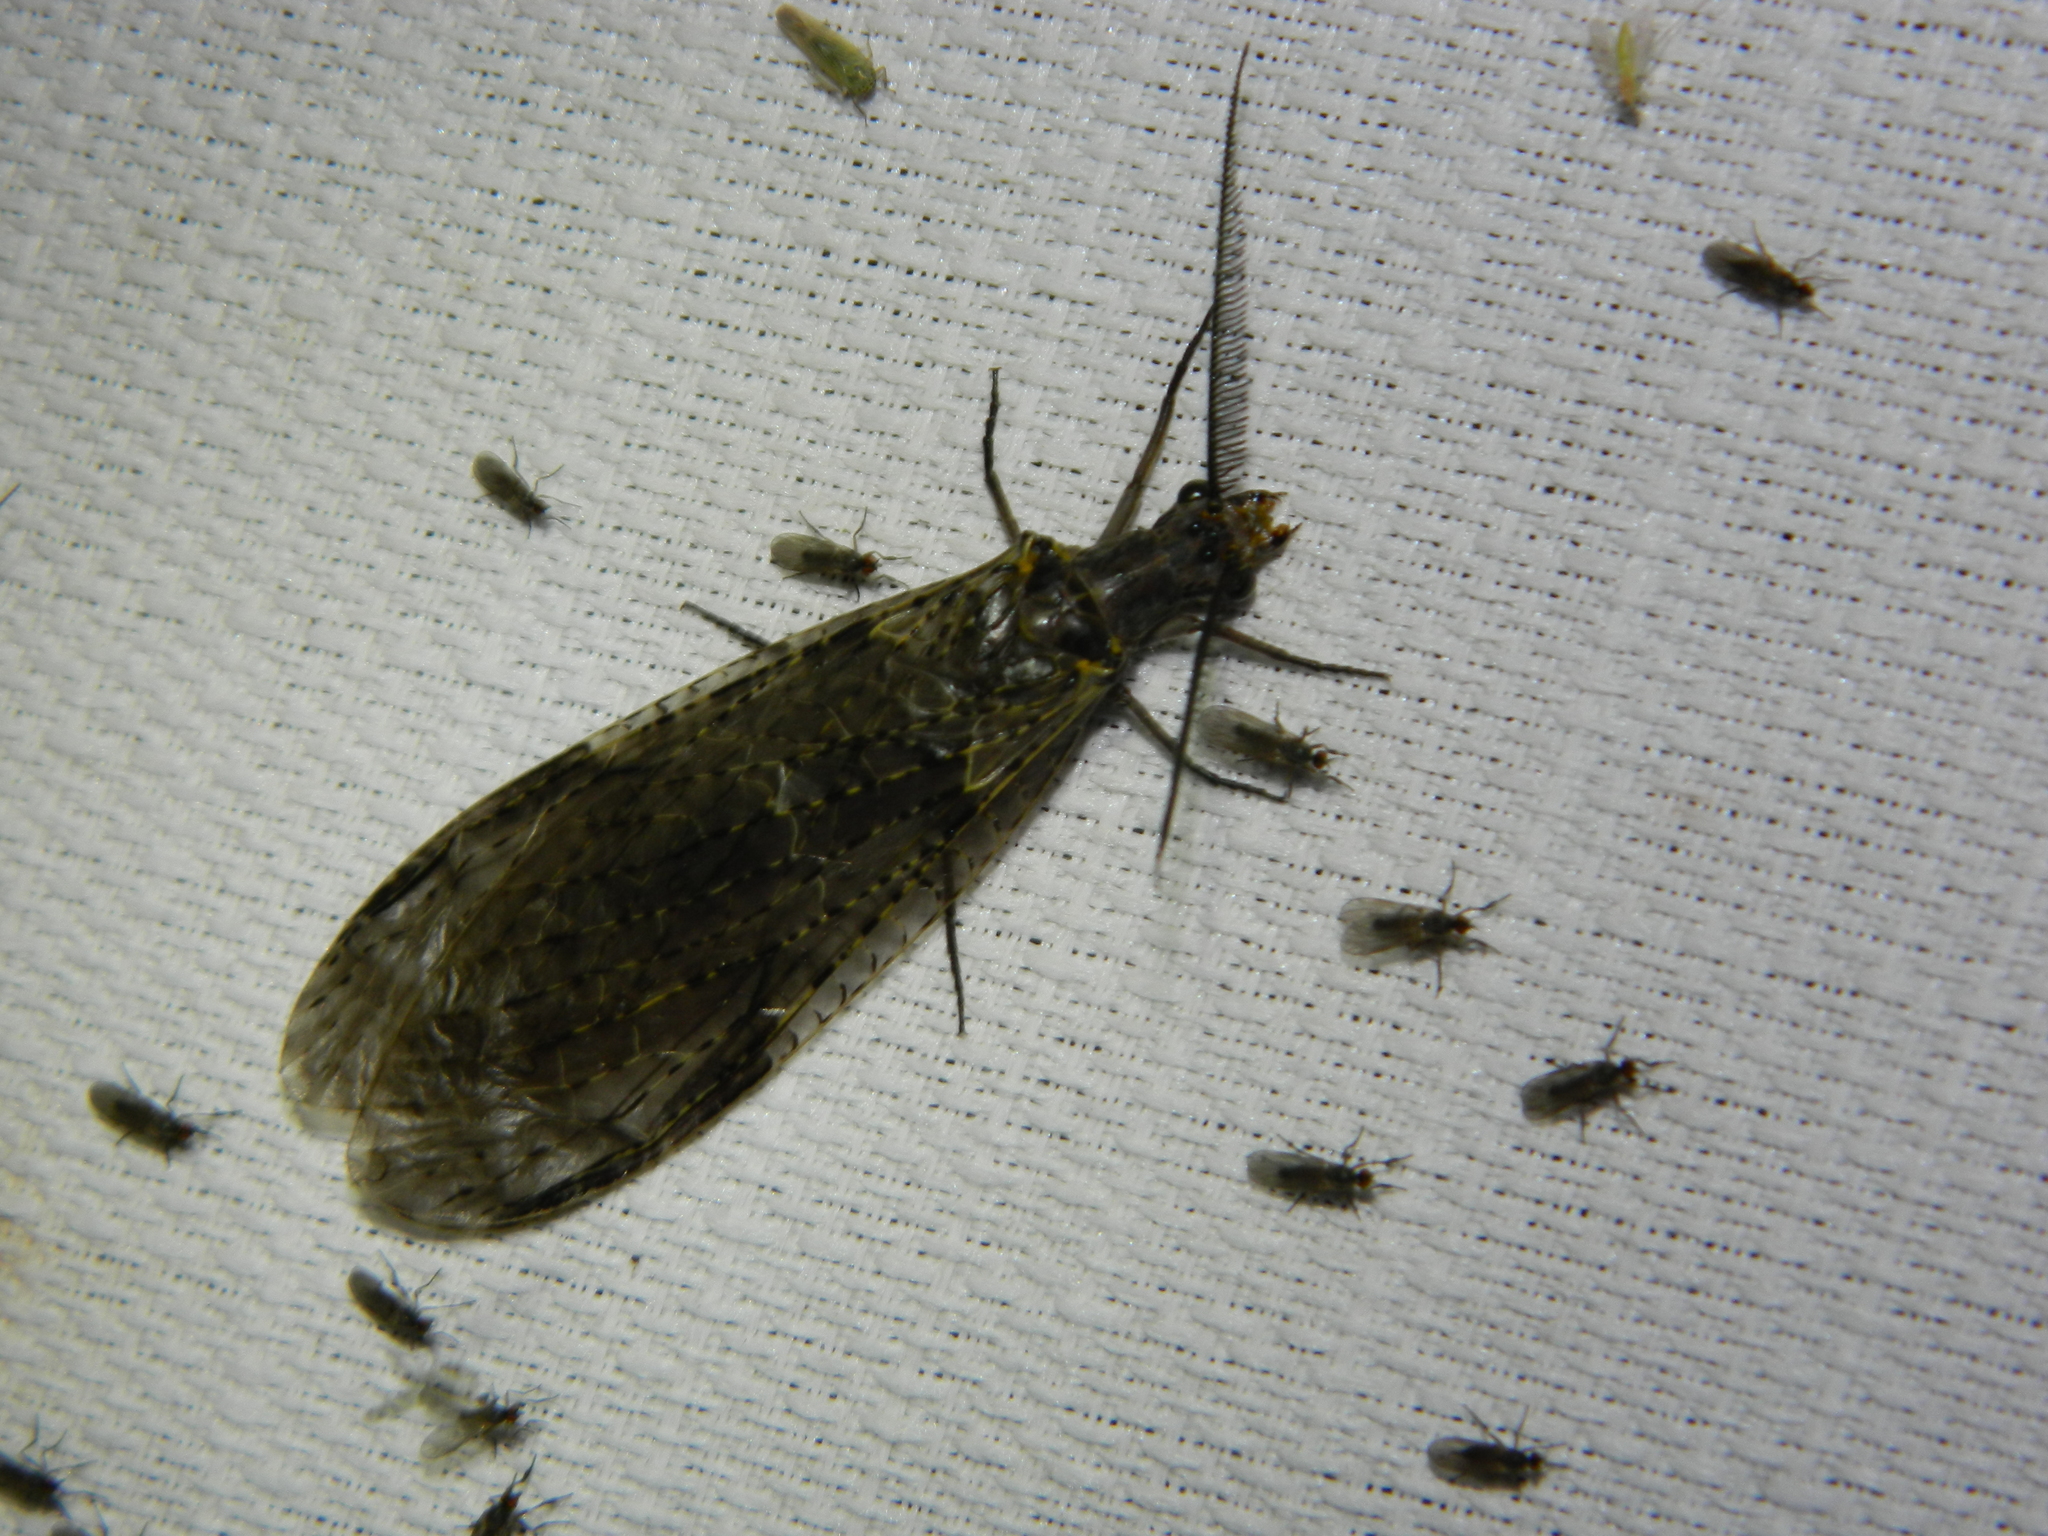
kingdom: Animalia
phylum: Arthropoda
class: Insecta
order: Megaloptera
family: Corydalidae
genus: Chauliodes
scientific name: Chauliodes rastricornis
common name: Spring fishfly
